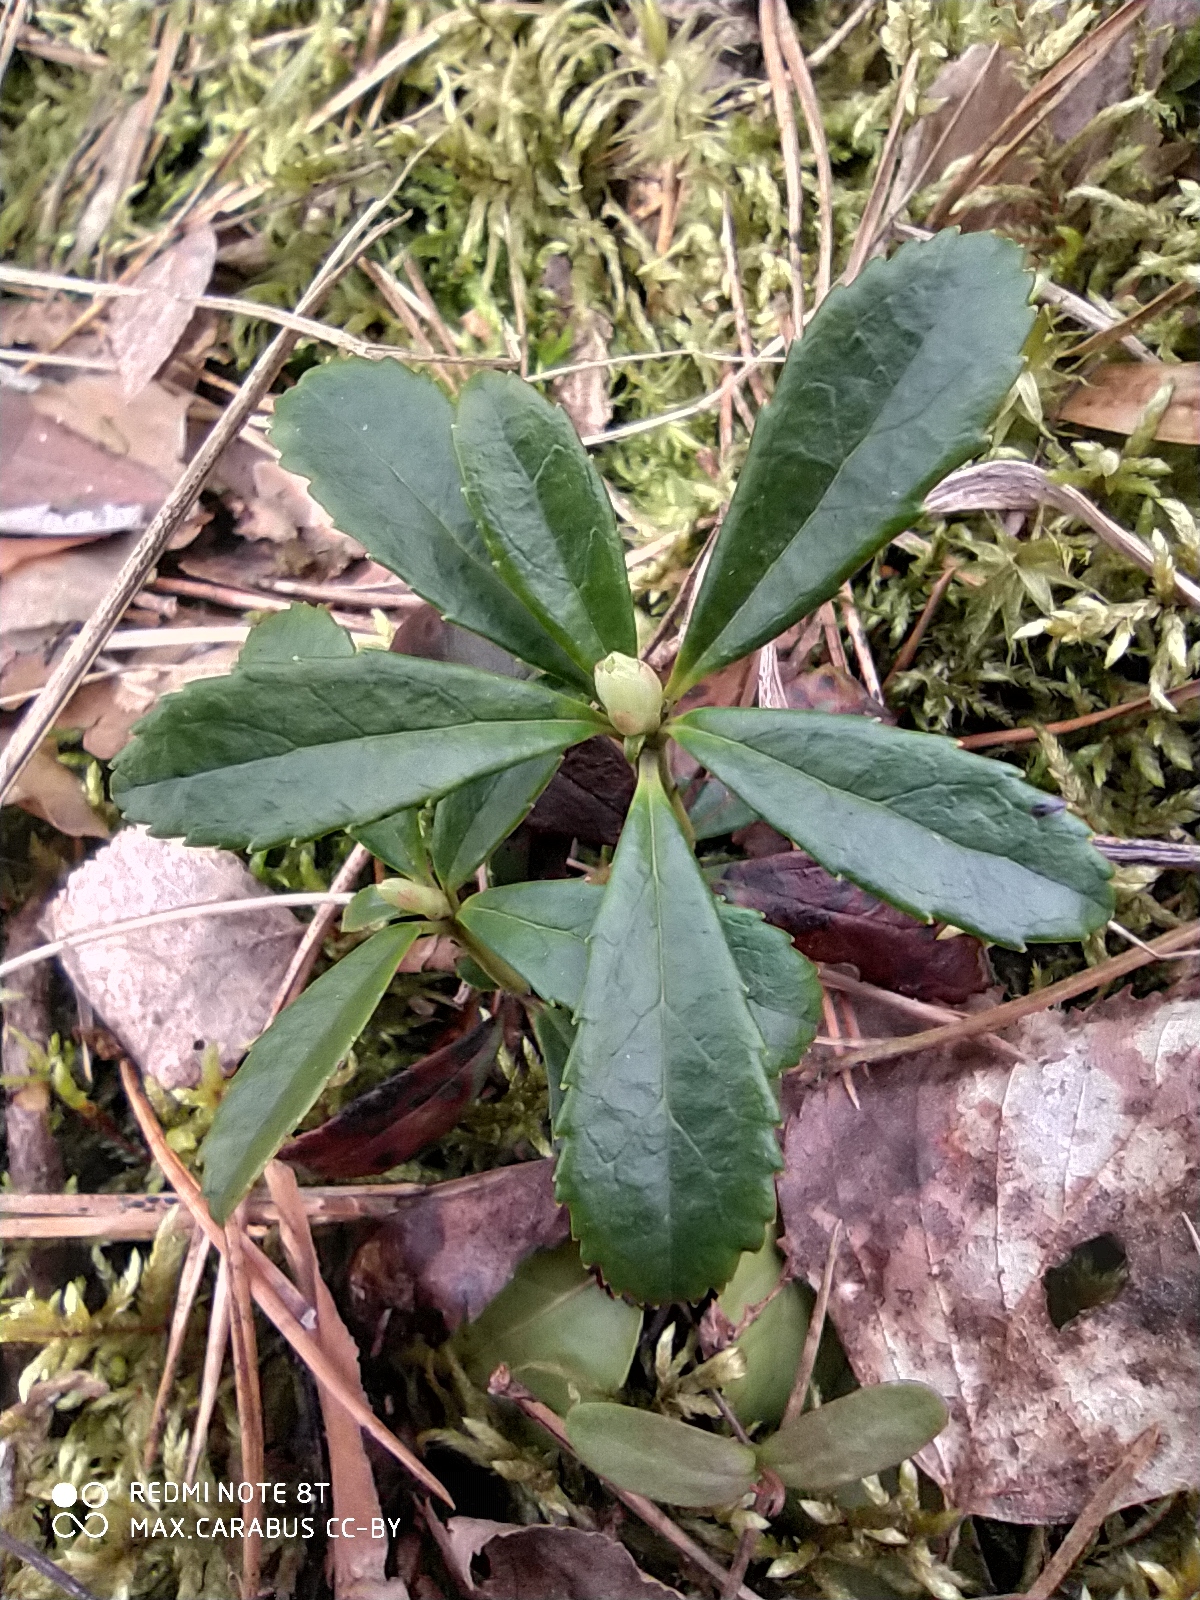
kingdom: Plantae
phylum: Tracheophyta
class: Magnoliopsida
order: Ericales
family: Ericaceae
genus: Chimaphila
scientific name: Chimaphila umbellata
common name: Pipsissewa
